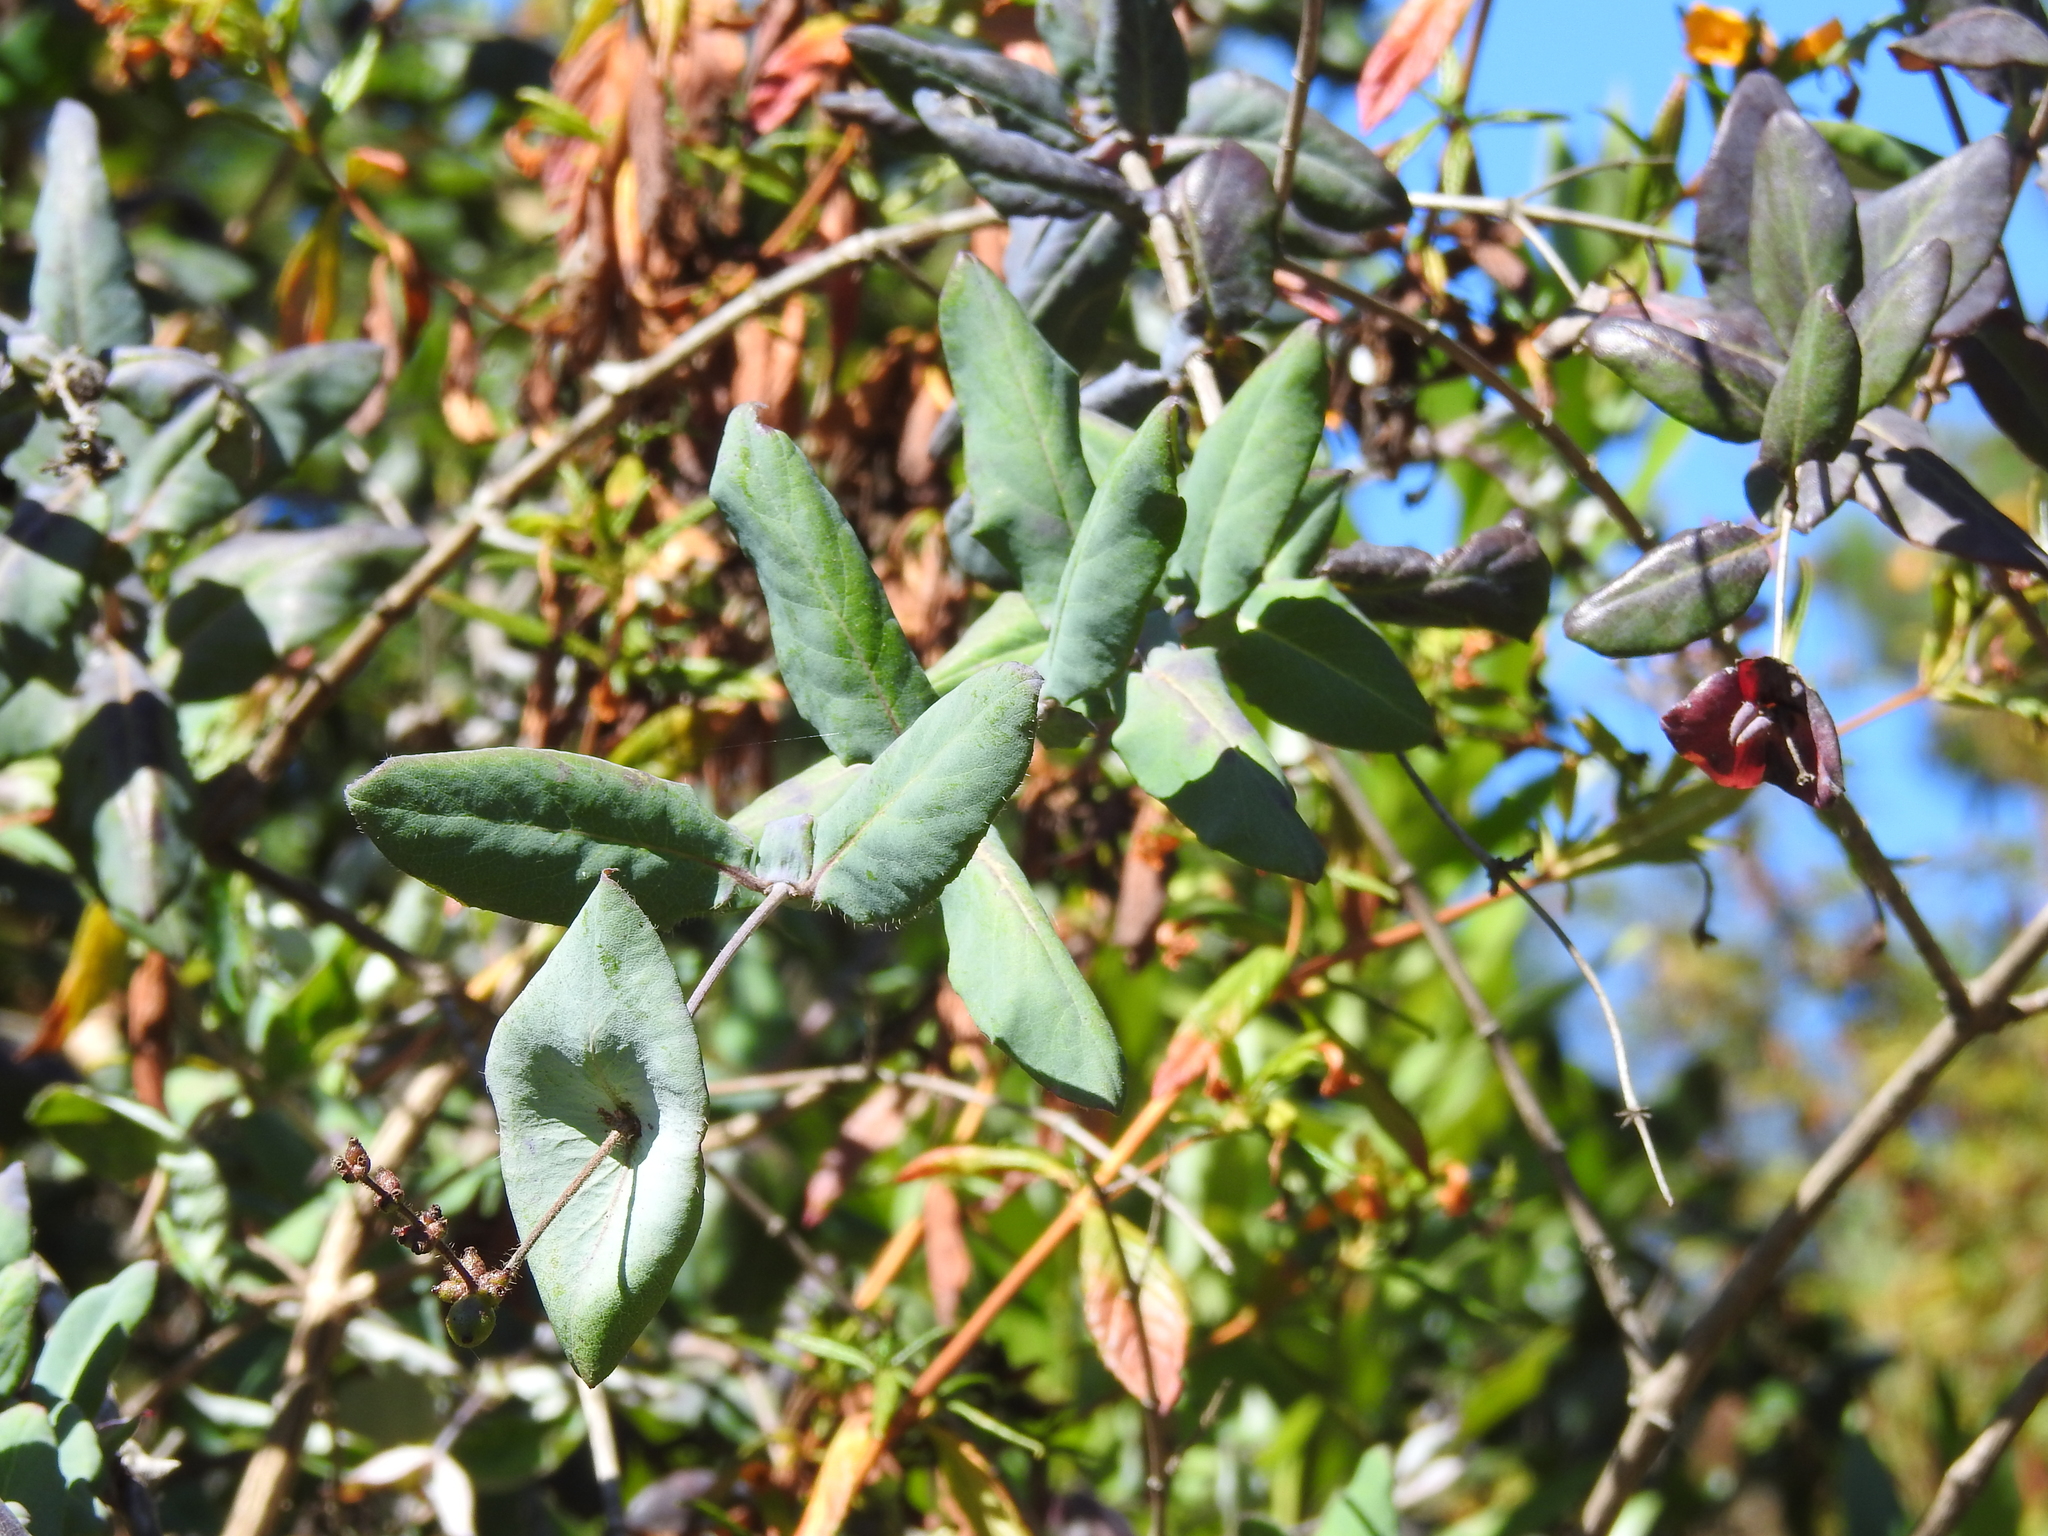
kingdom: Plantae
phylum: Tracheophyta
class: Magnoliopsida
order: Dipsacales
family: Caprifoliaceae
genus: Lonicera
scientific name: Lonicera hispidula
